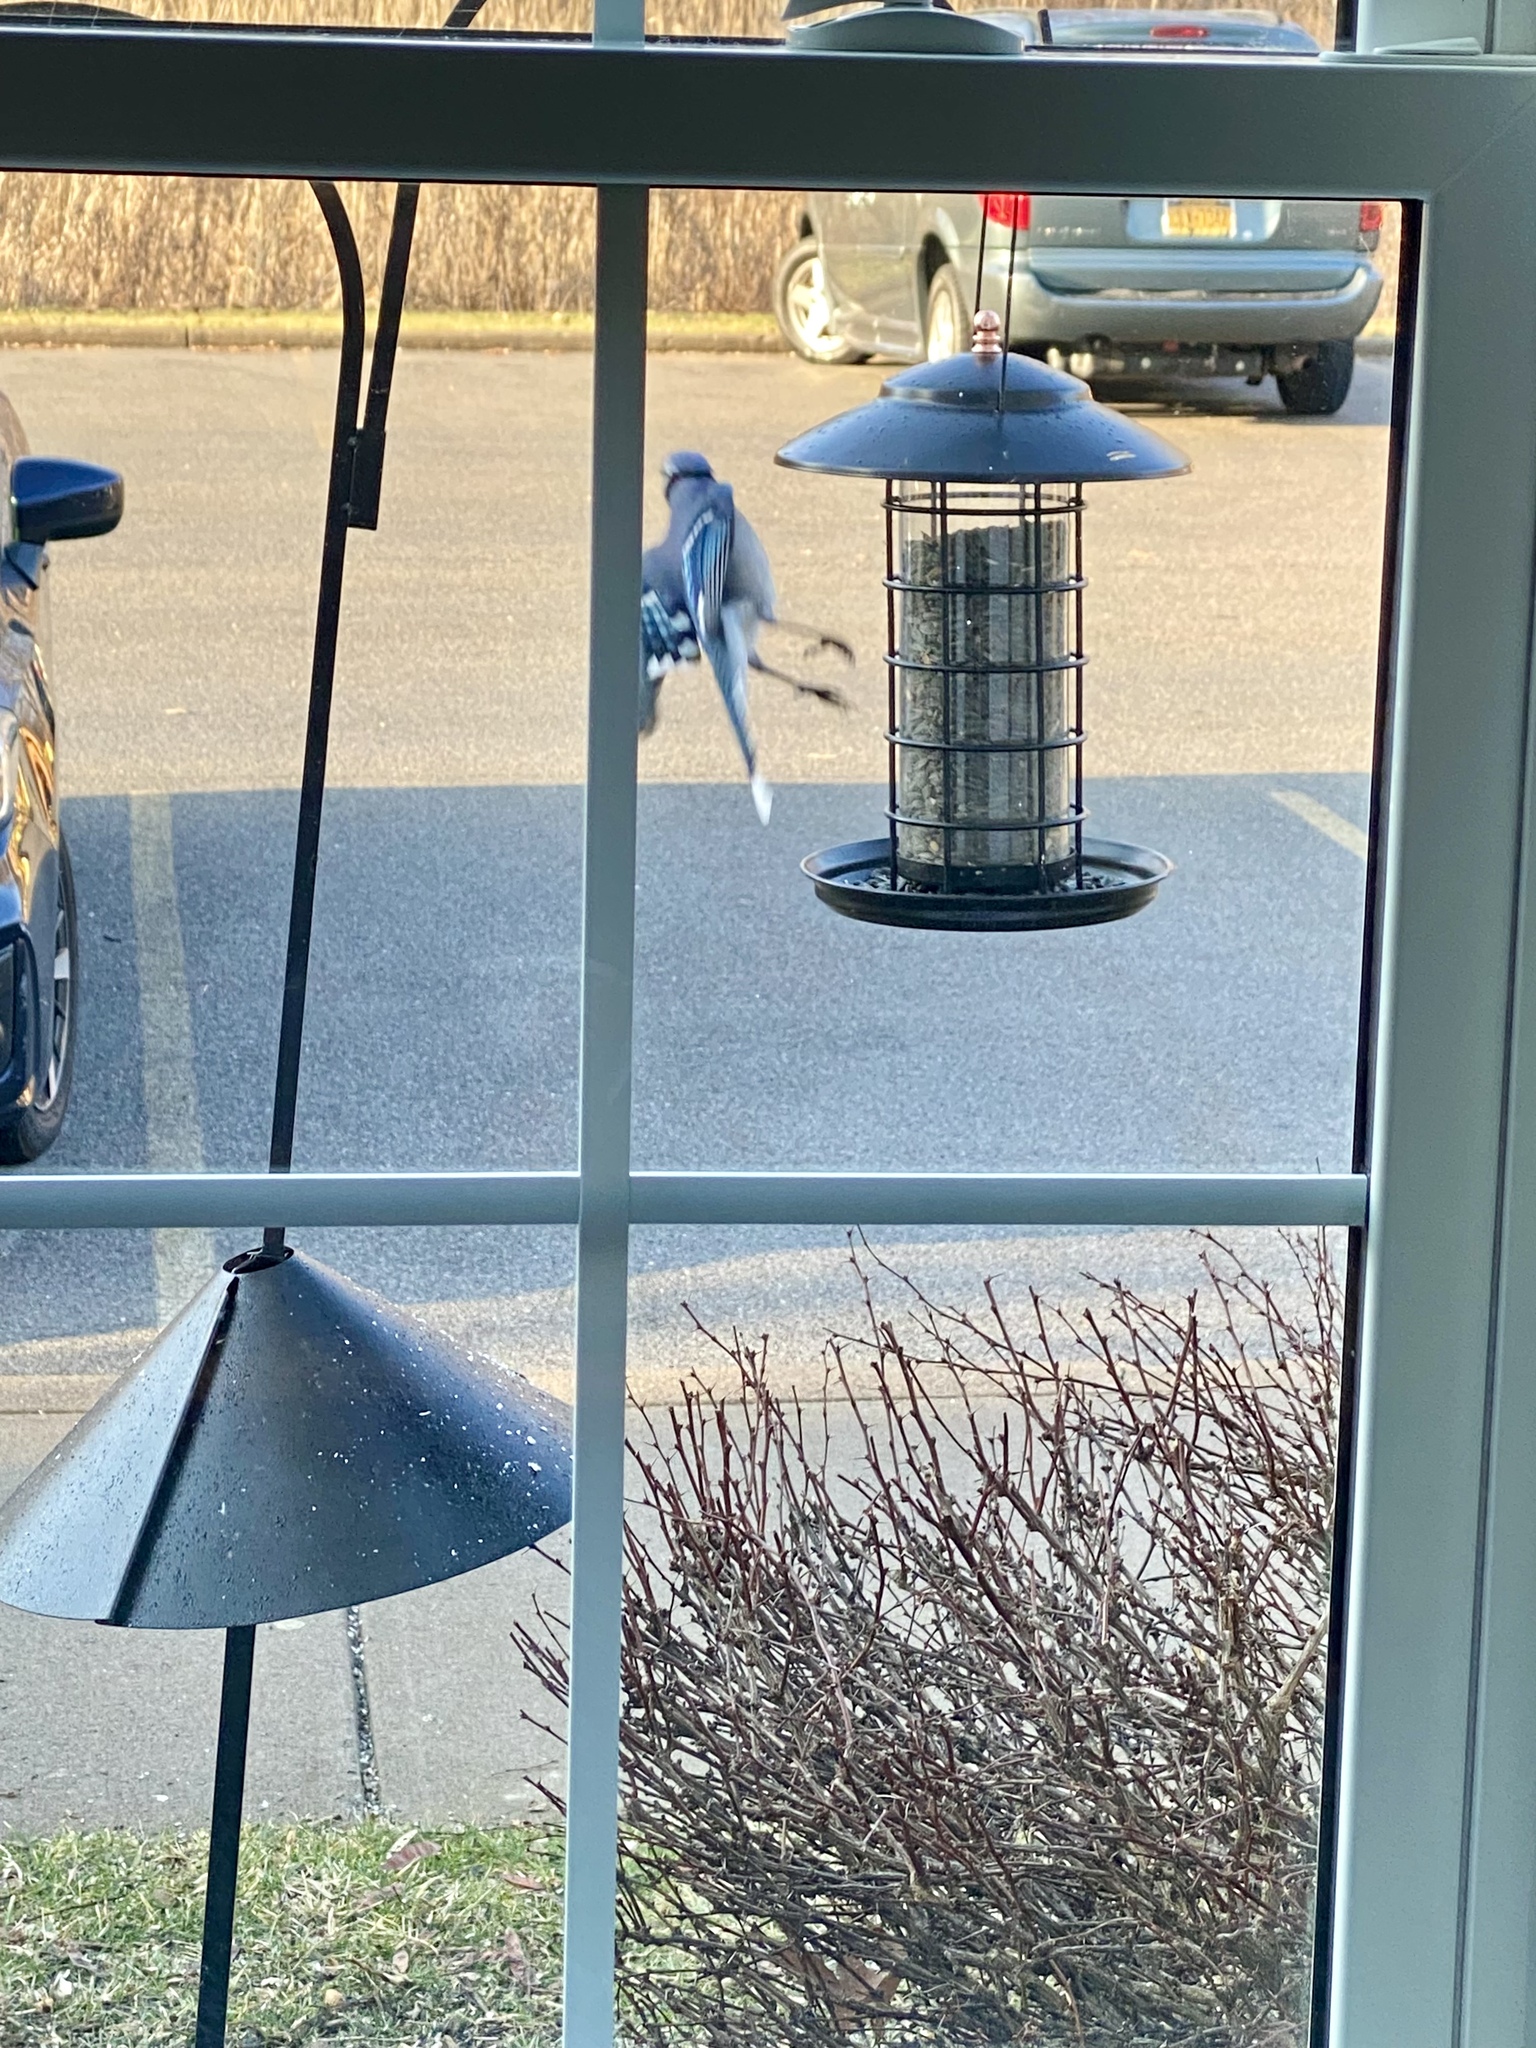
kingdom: Animalia
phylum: Chordata
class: Aves
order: Passeriformes
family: Corvidae
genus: Cyanocitta
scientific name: Cyanocitta cristata
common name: Blue jay
